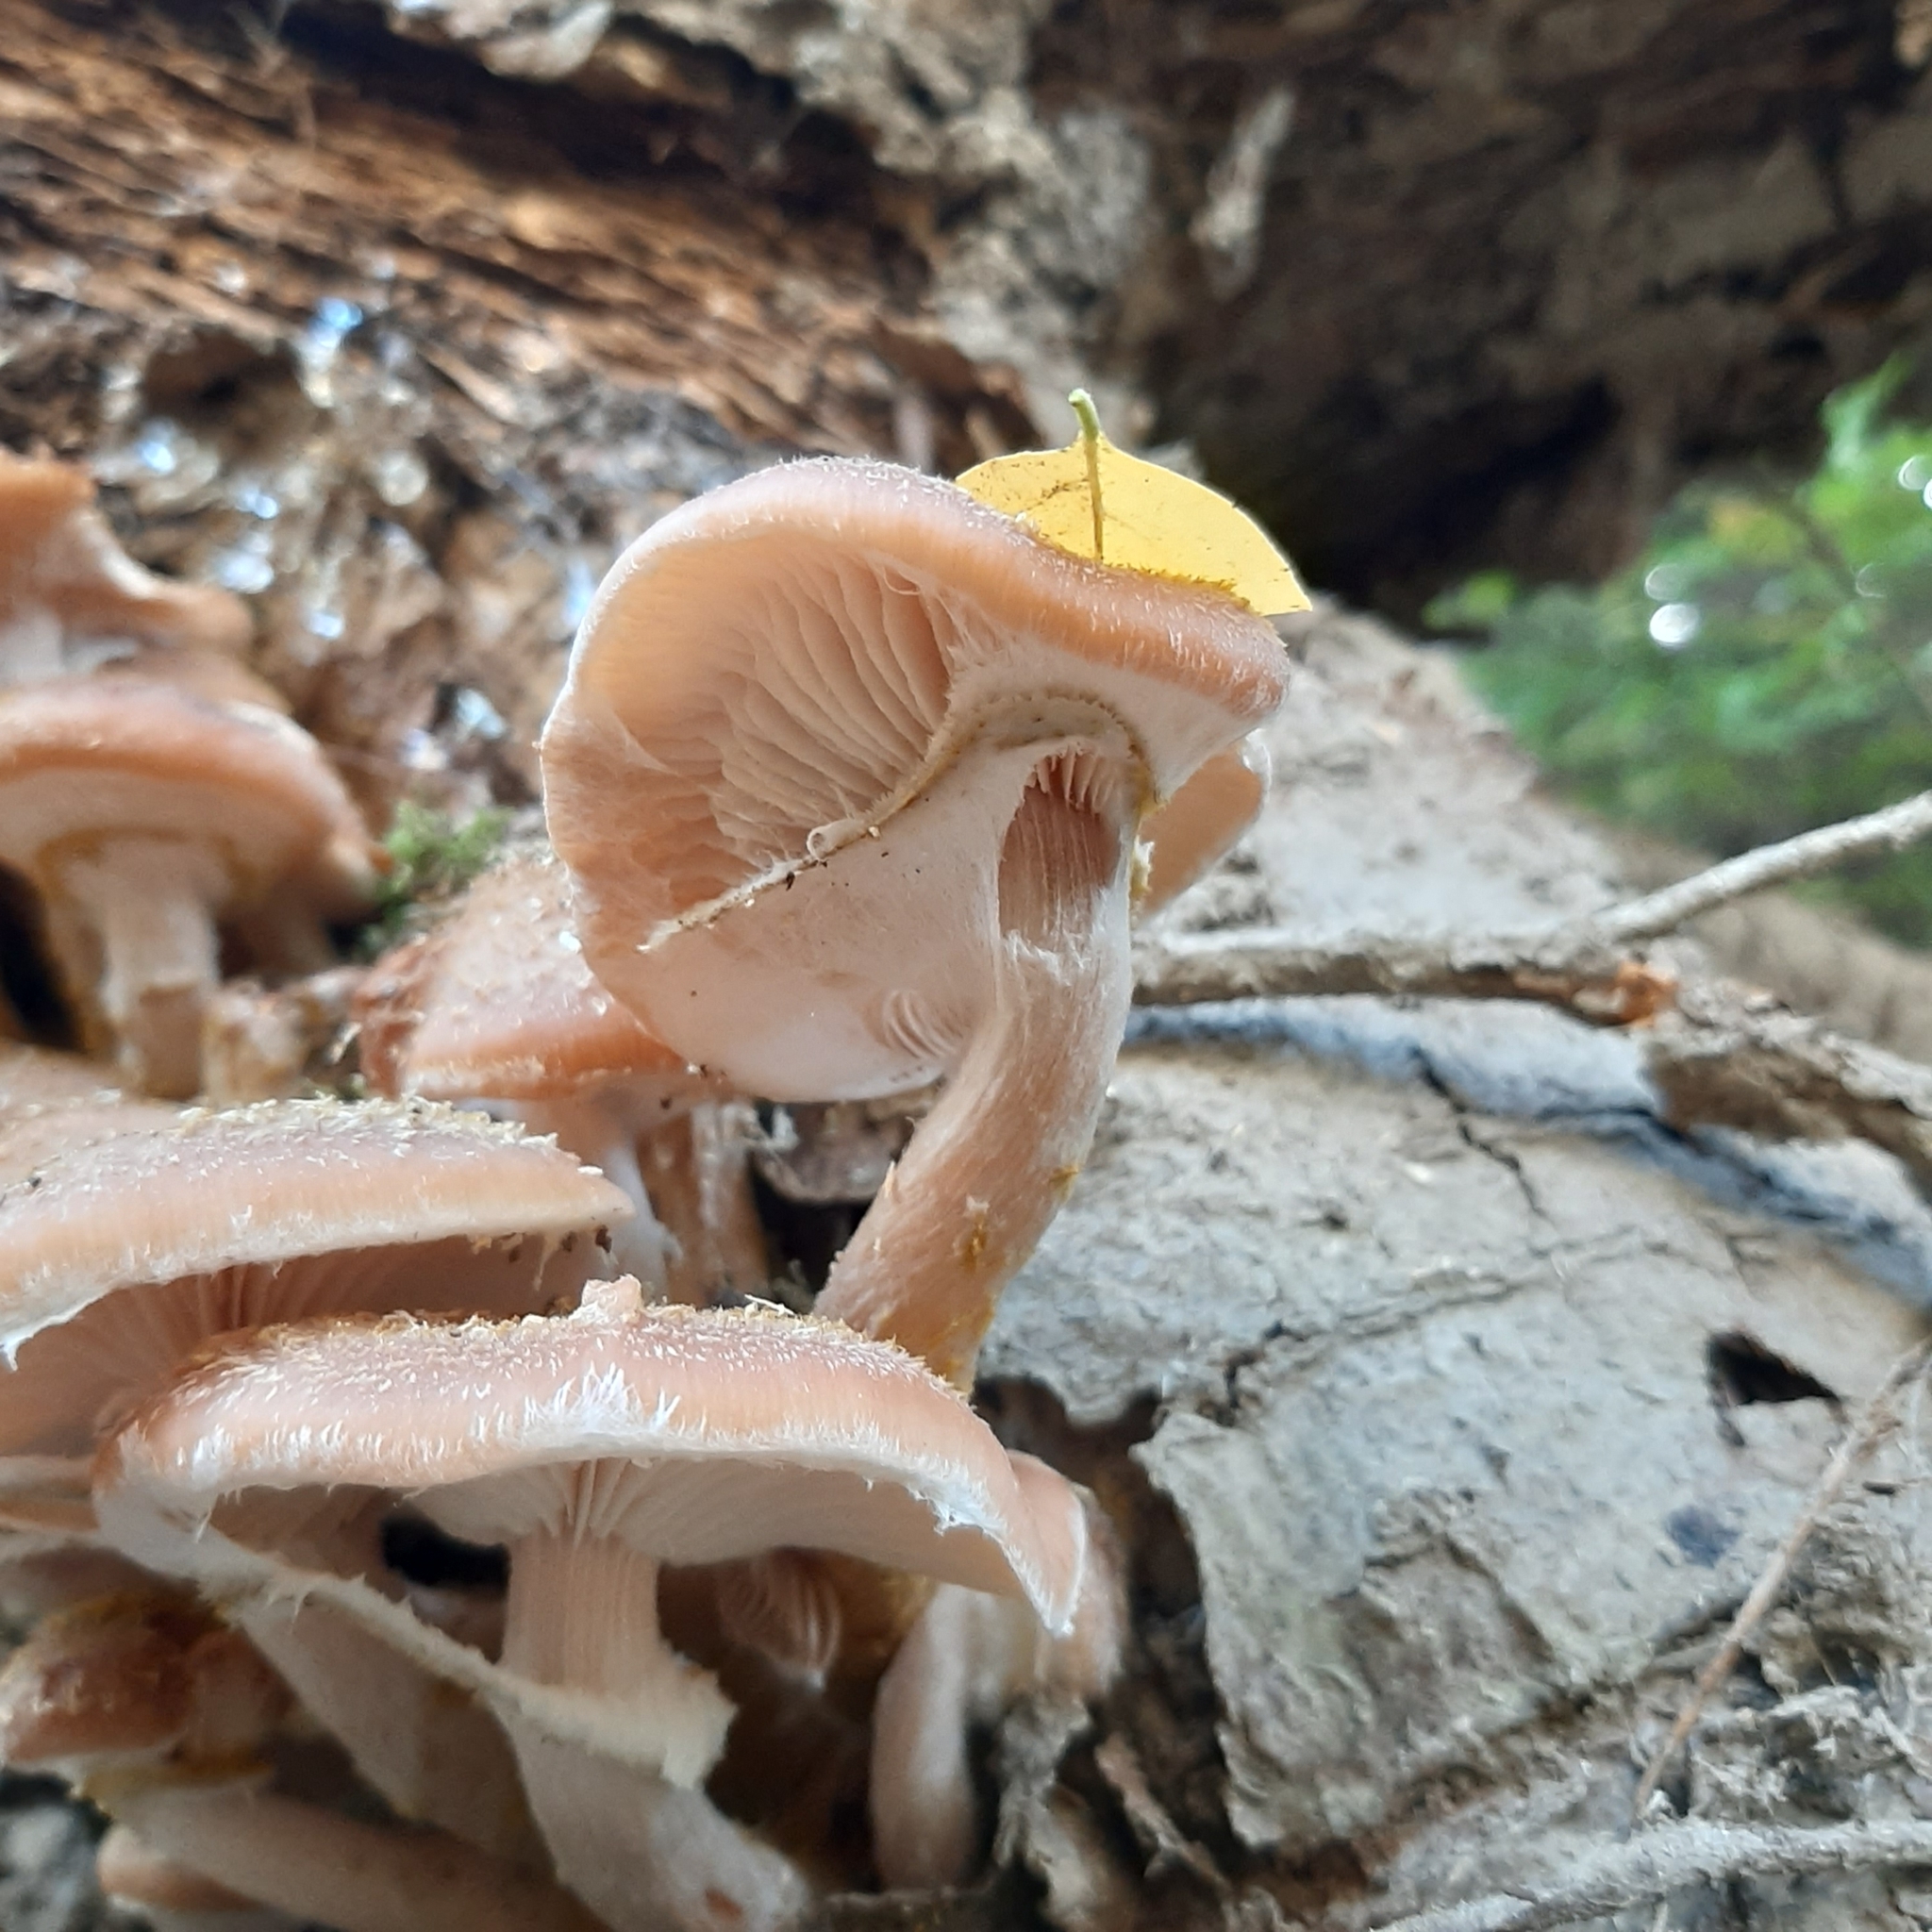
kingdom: Fungi
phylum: Basidiomycota
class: Agaricomycetes
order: Agaricales
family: Physalacriaceae
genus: Armillaria
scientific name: Armillaria
